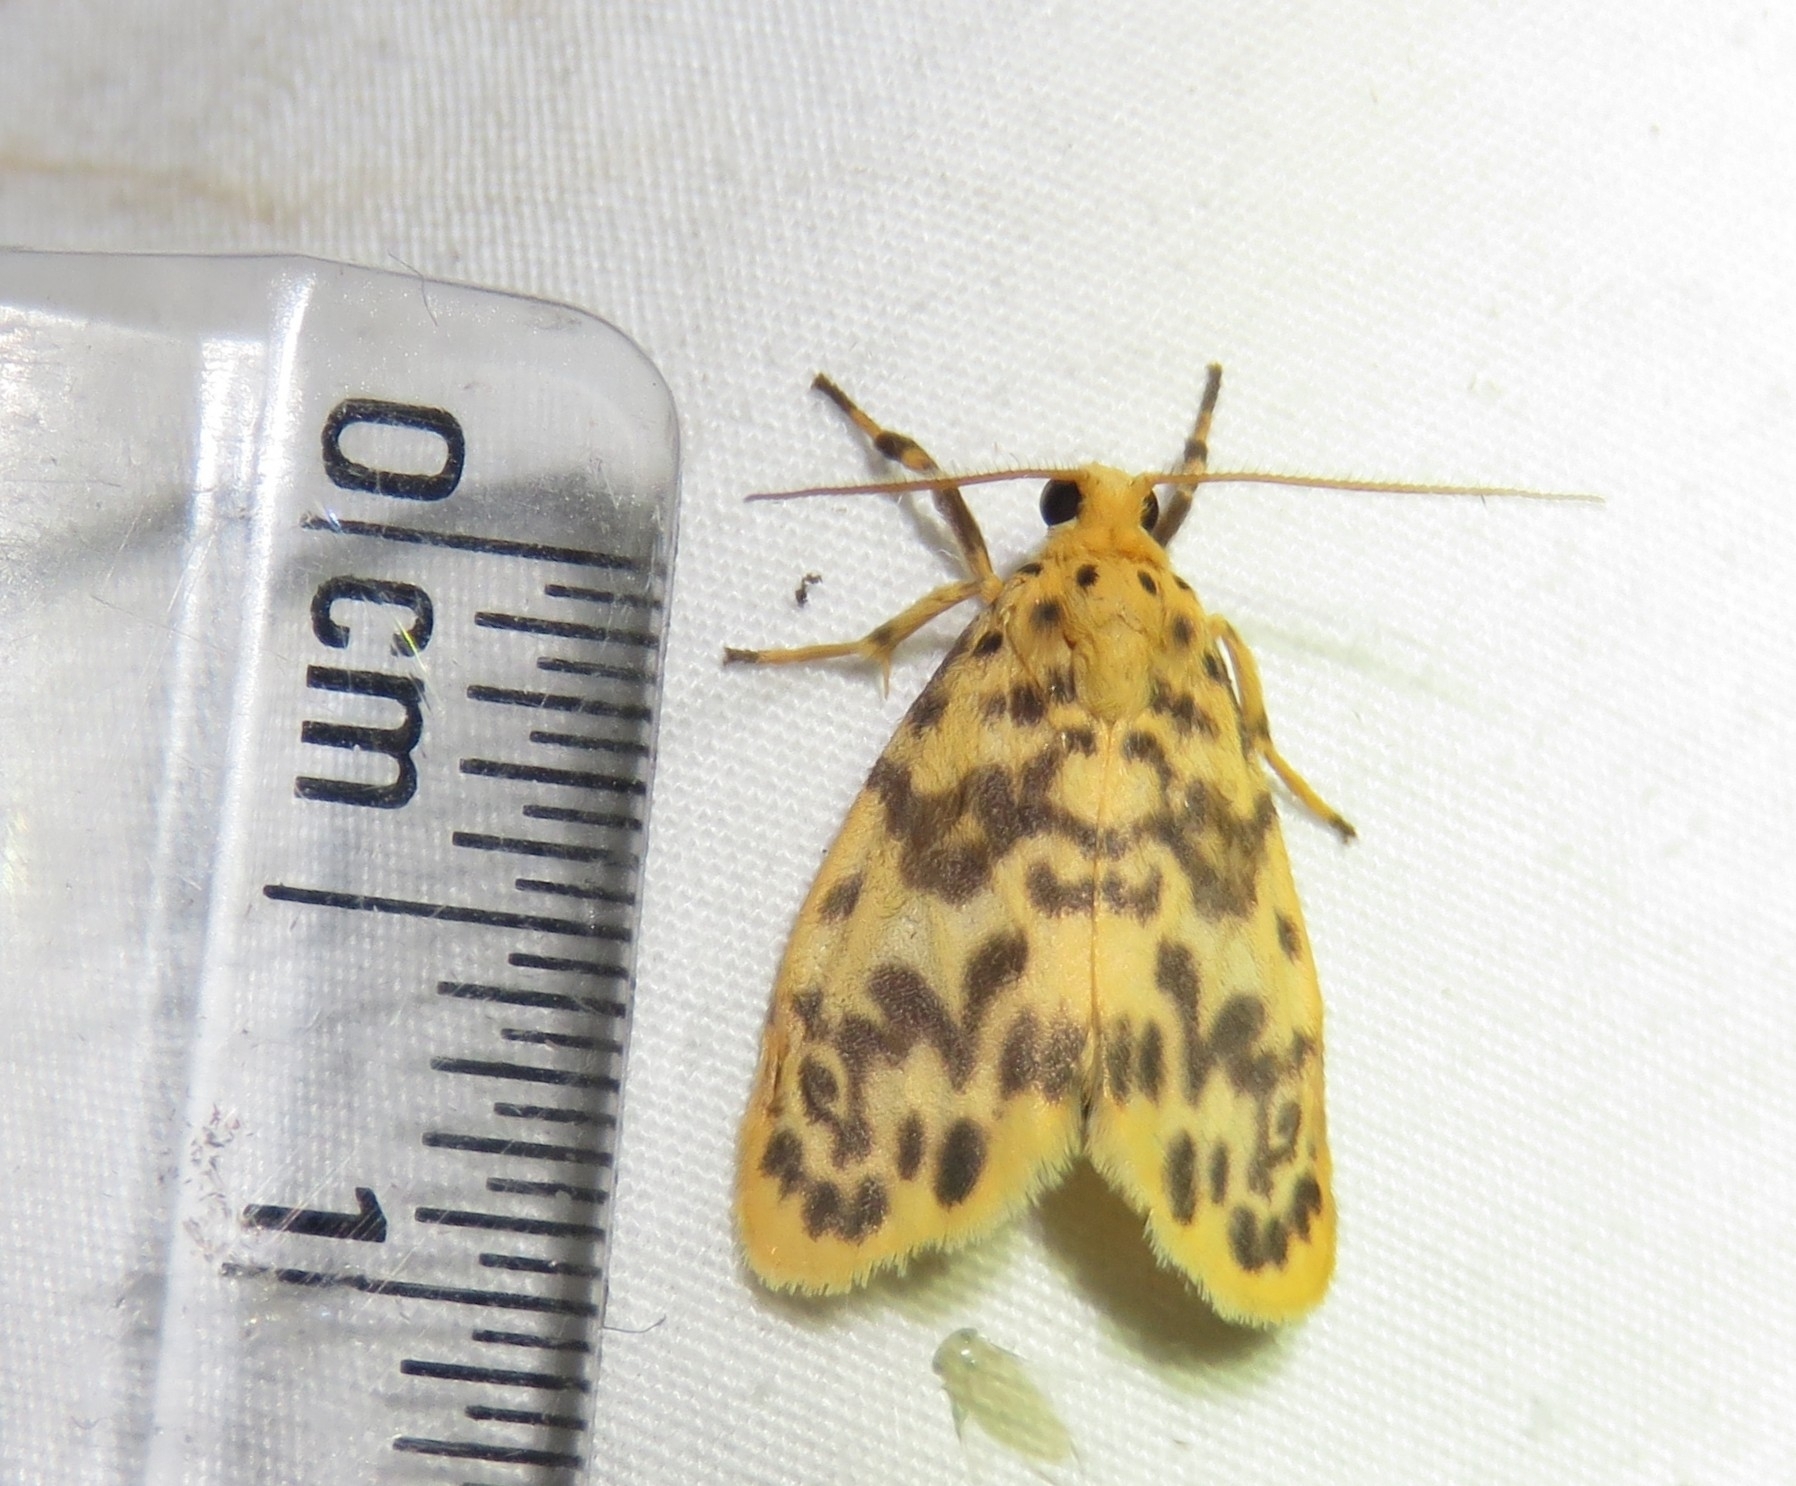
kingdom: Animalia
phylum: Arthropoda
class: Insecta
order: Lepidoptera
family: Erebidae
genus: Miltochrista
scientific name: Miltochrista semifascia
